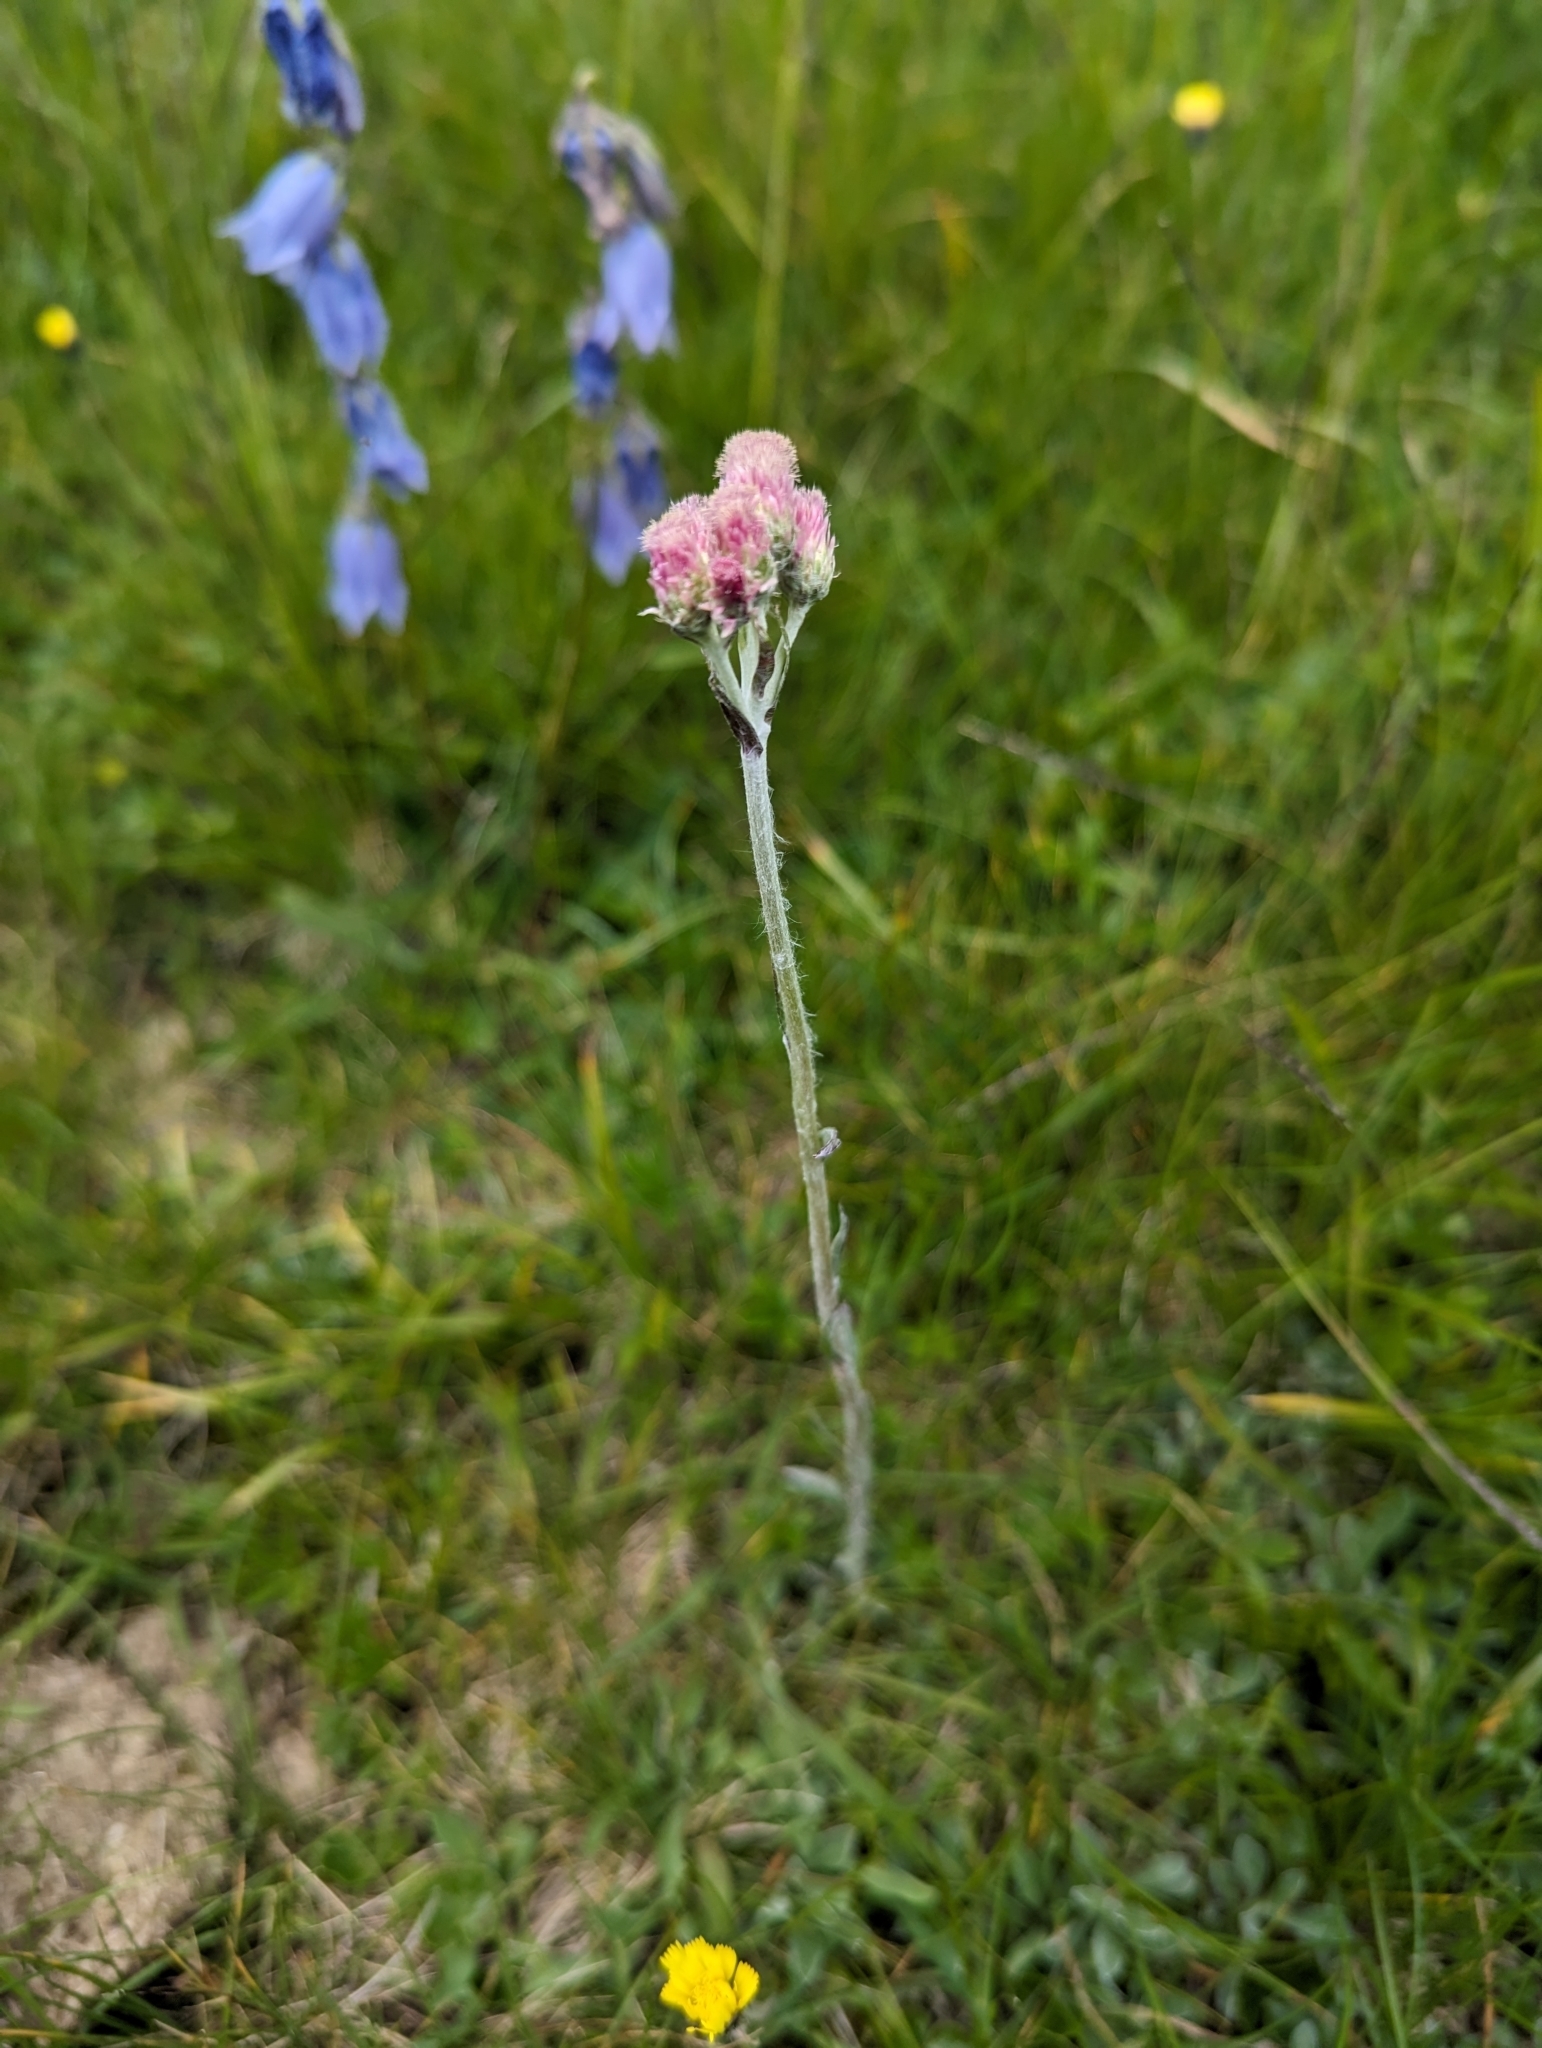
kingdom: Plantae
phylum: Tracheophyta
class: Magnoliopsida
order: Asterales
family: Asteraceae
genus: Antennaria
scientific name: Antennaria dioica
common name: Mountain everlasting
